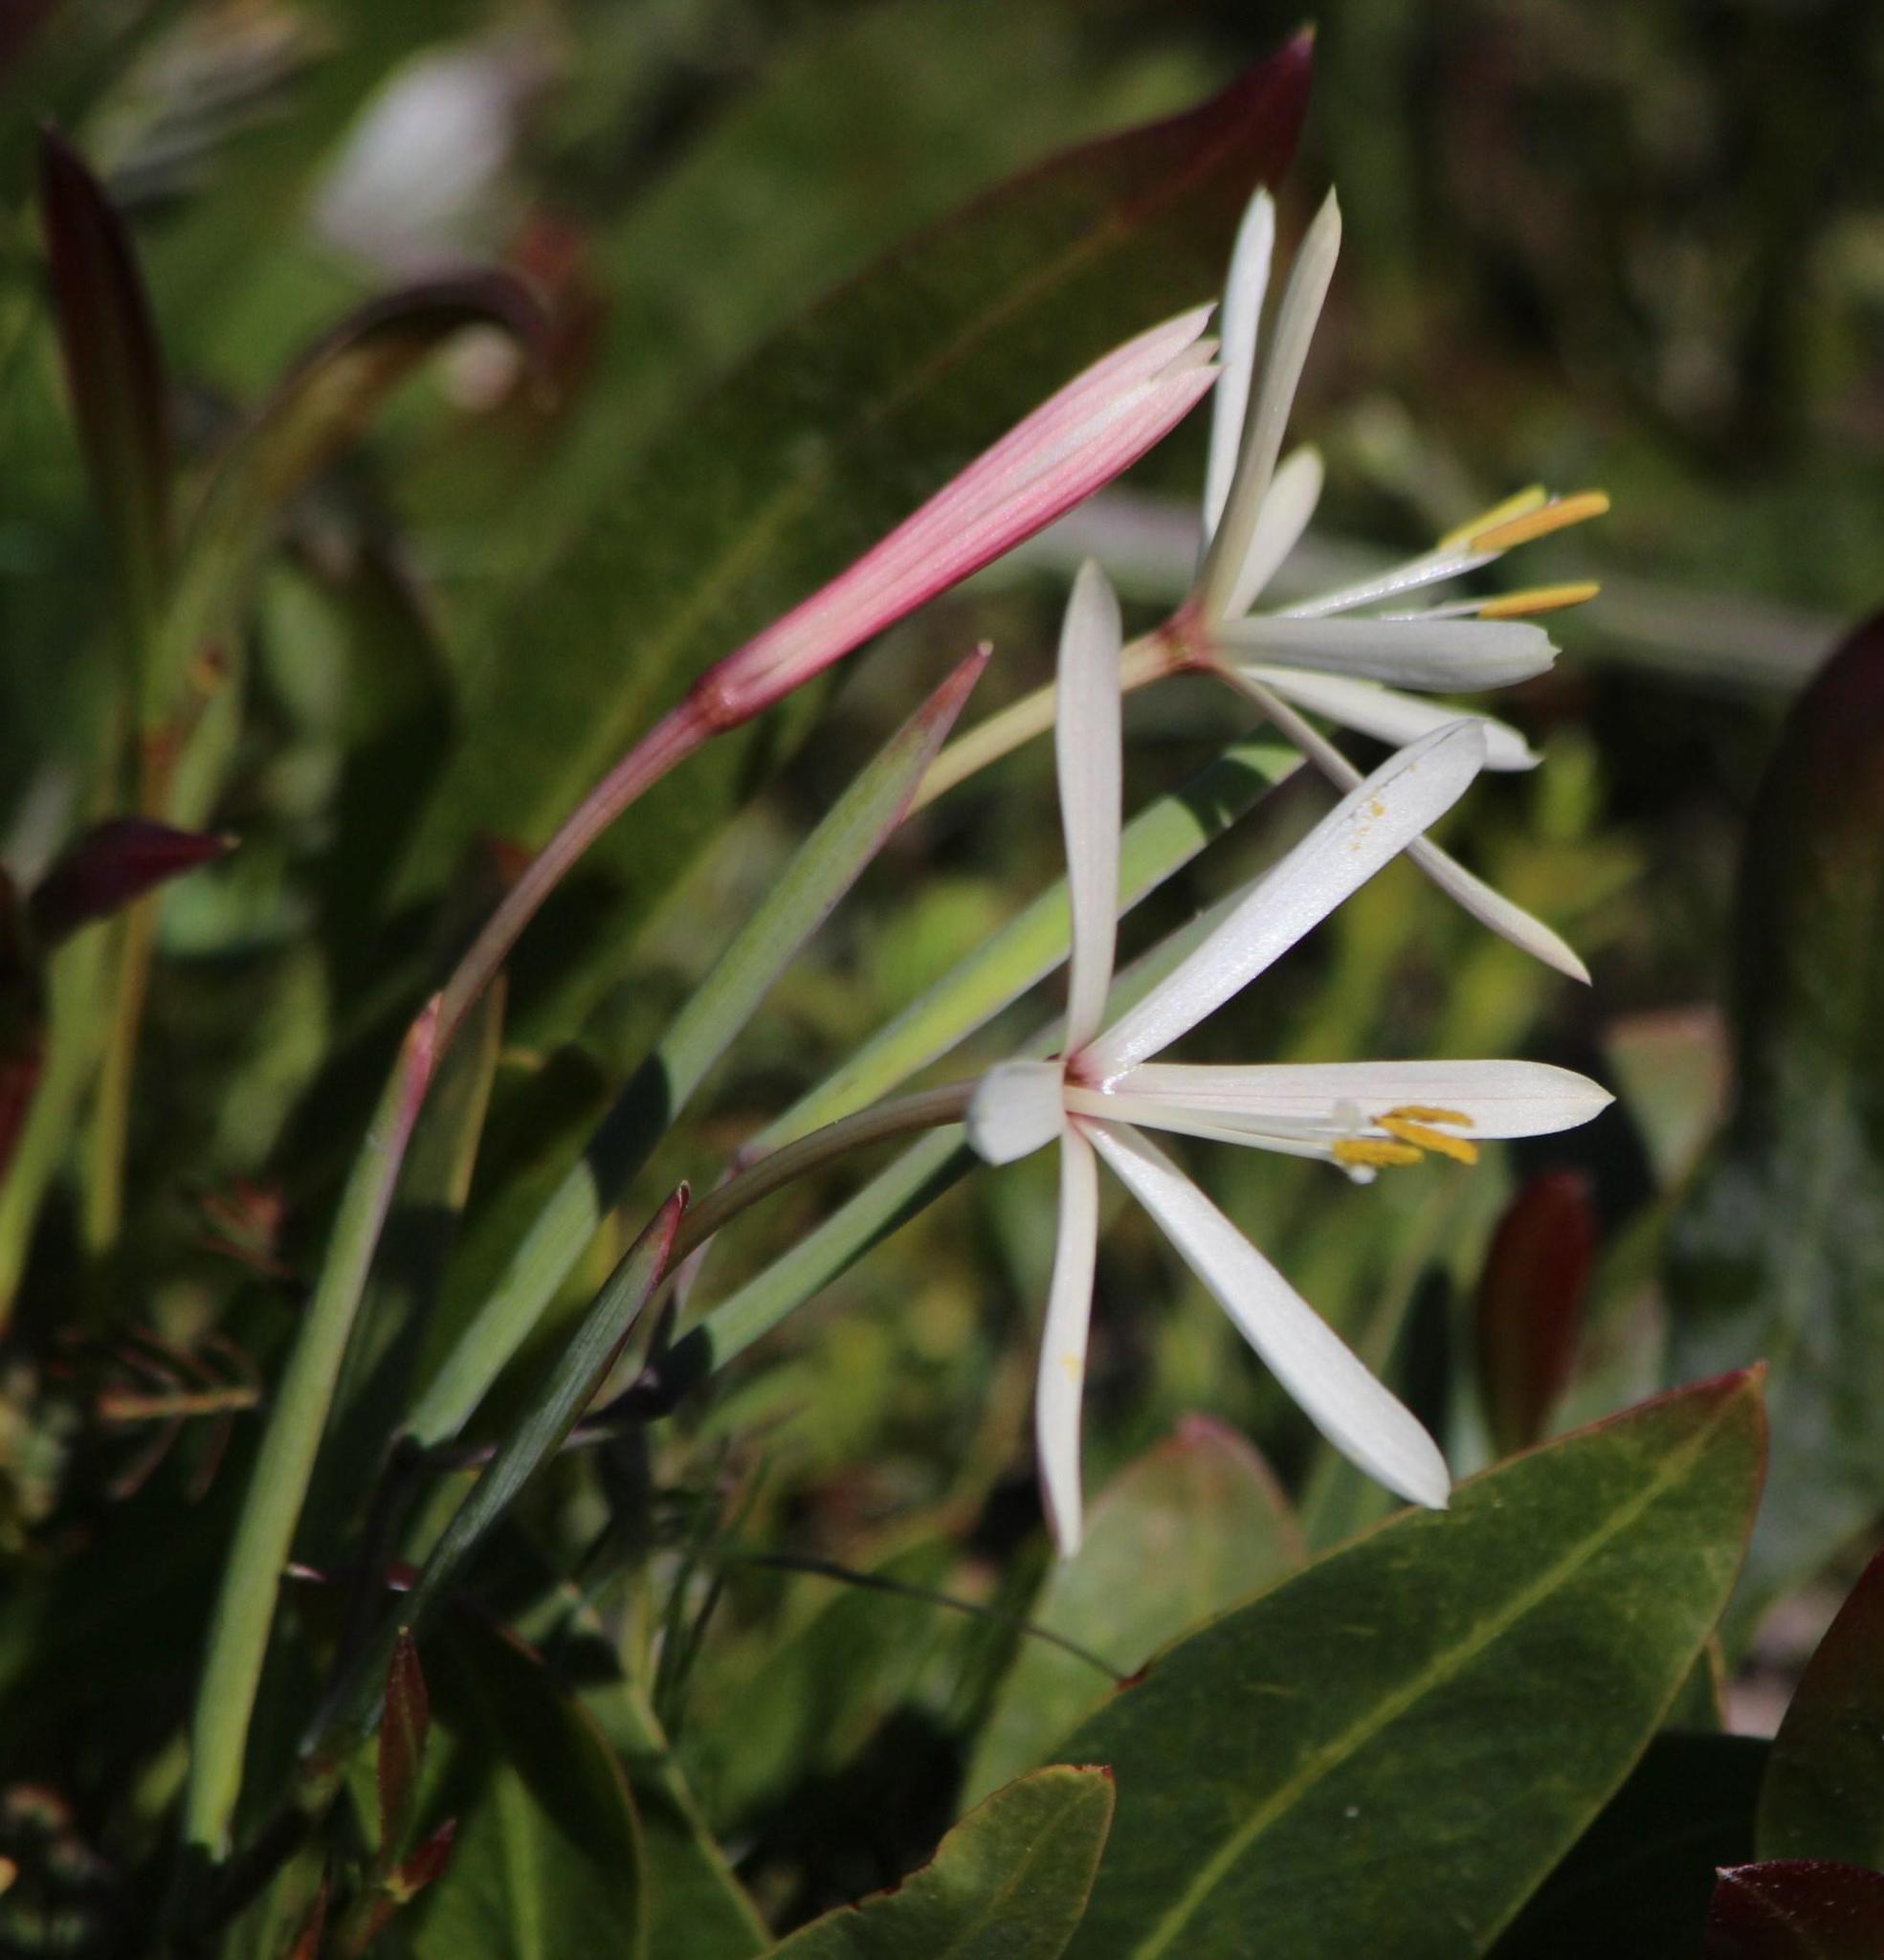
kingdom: Plantae
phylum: Tracheophyta
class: Liliopsida
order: Asparagales
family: Iridaceae
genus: Geissorhiza
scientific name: Geissorhiza exscapa
